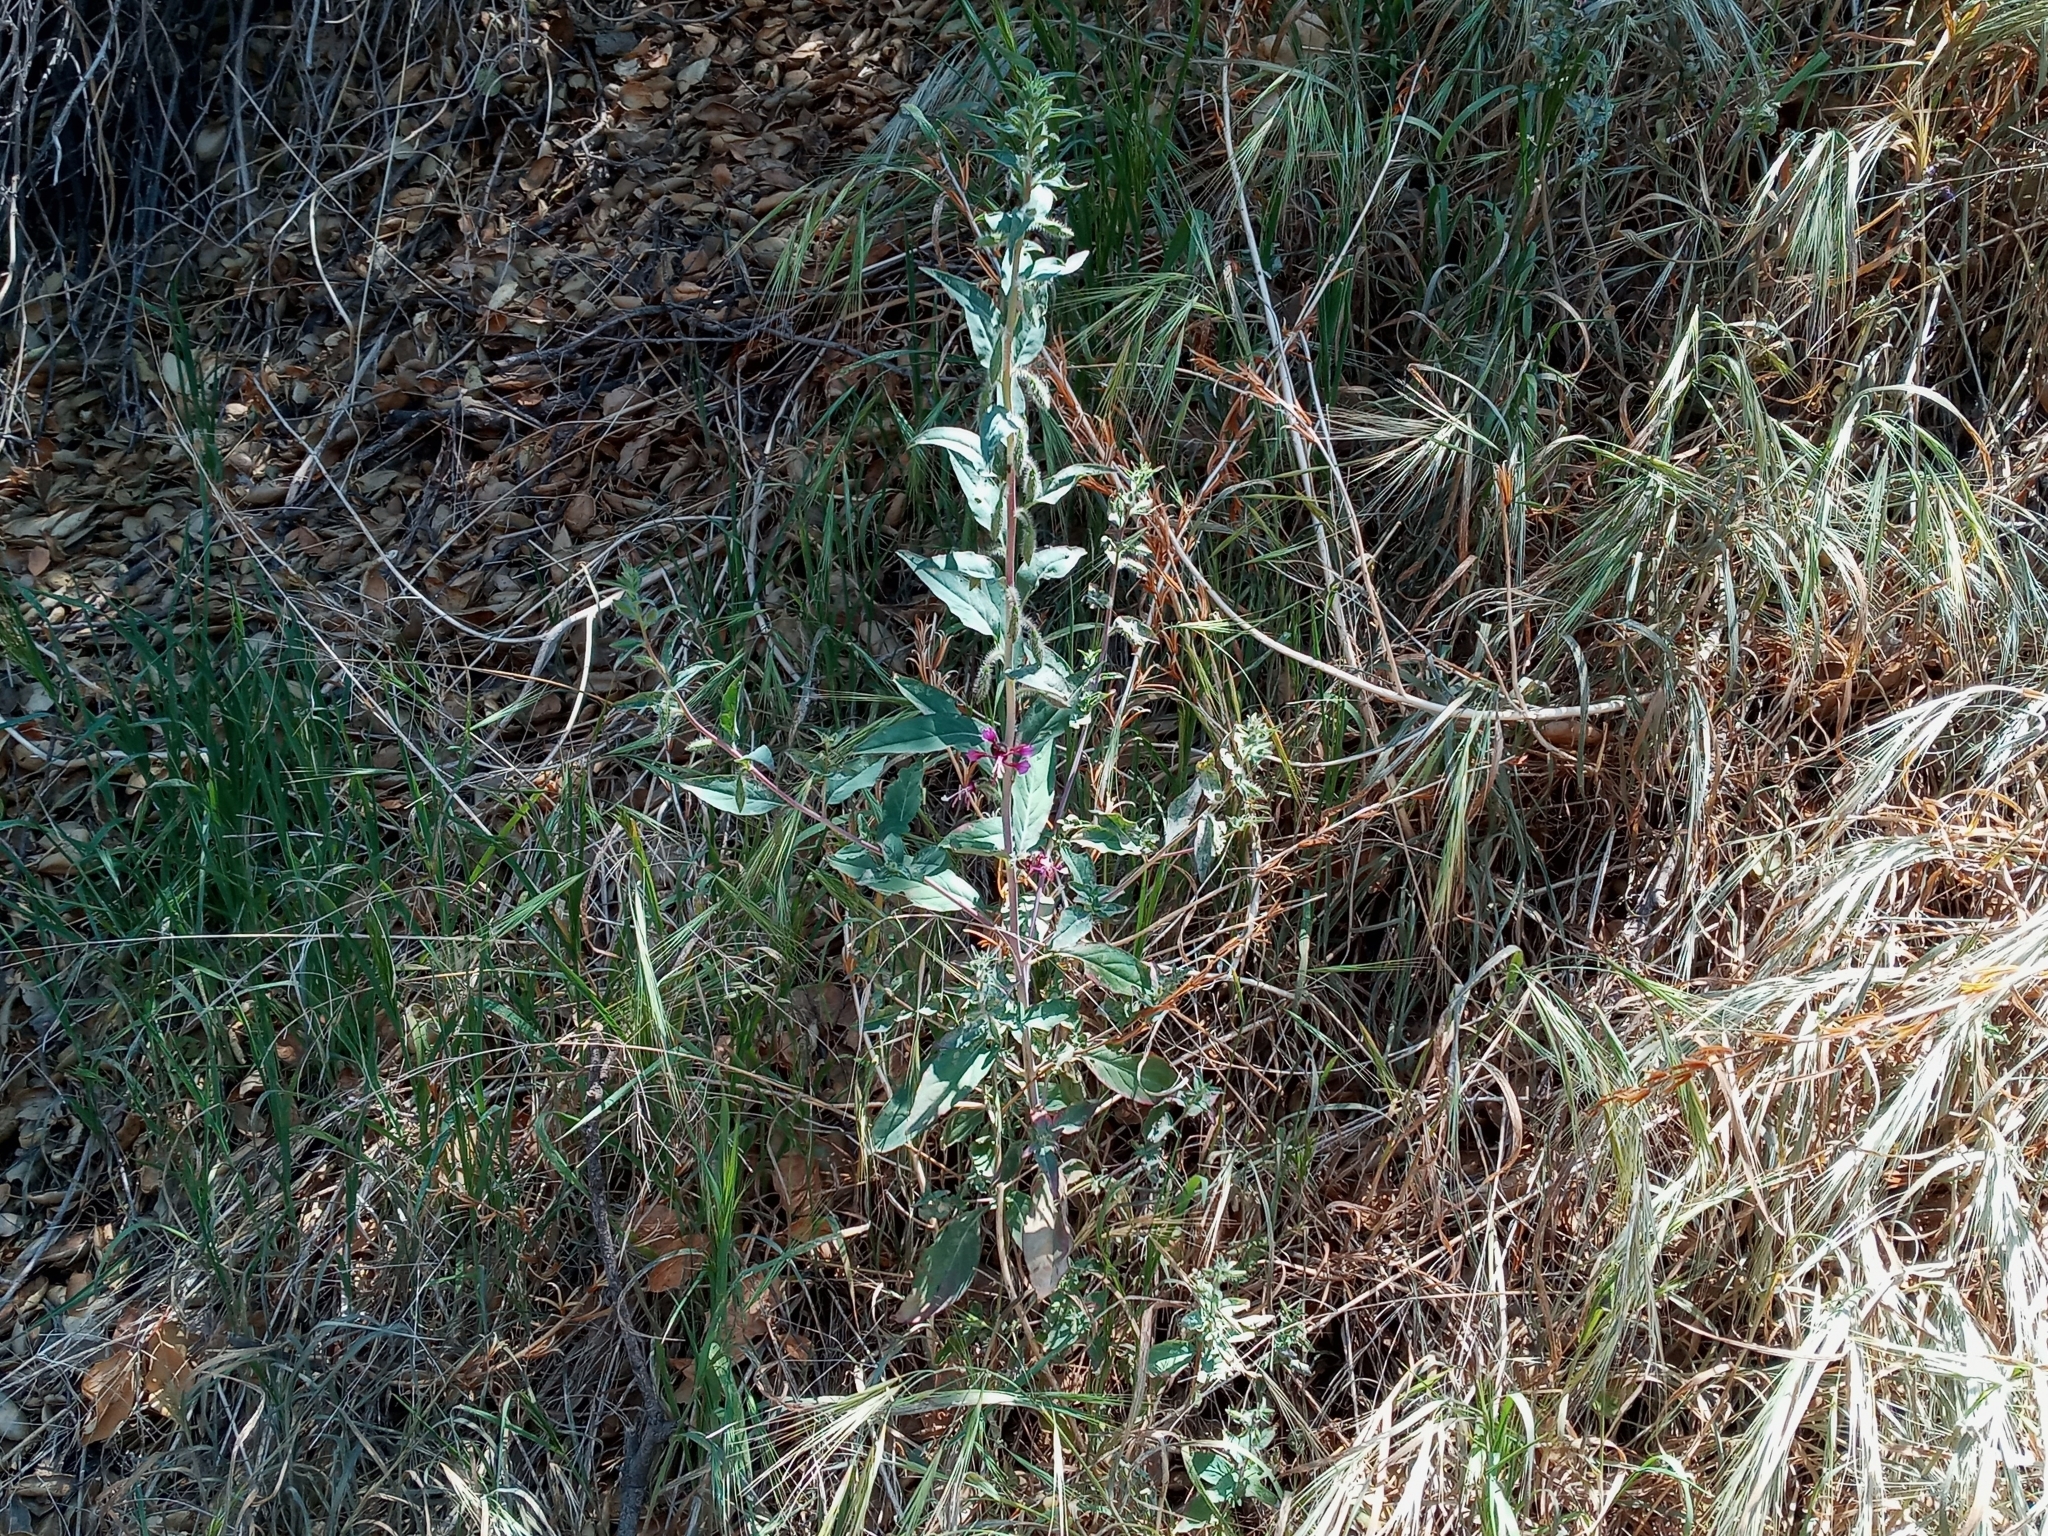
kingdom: Plantae
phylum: Tracheophyta
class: Magnoliopsida
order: Myrtales
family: Onagraceae
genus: Clarkia
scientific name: Clarkia unguiculata
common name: Clarkia
